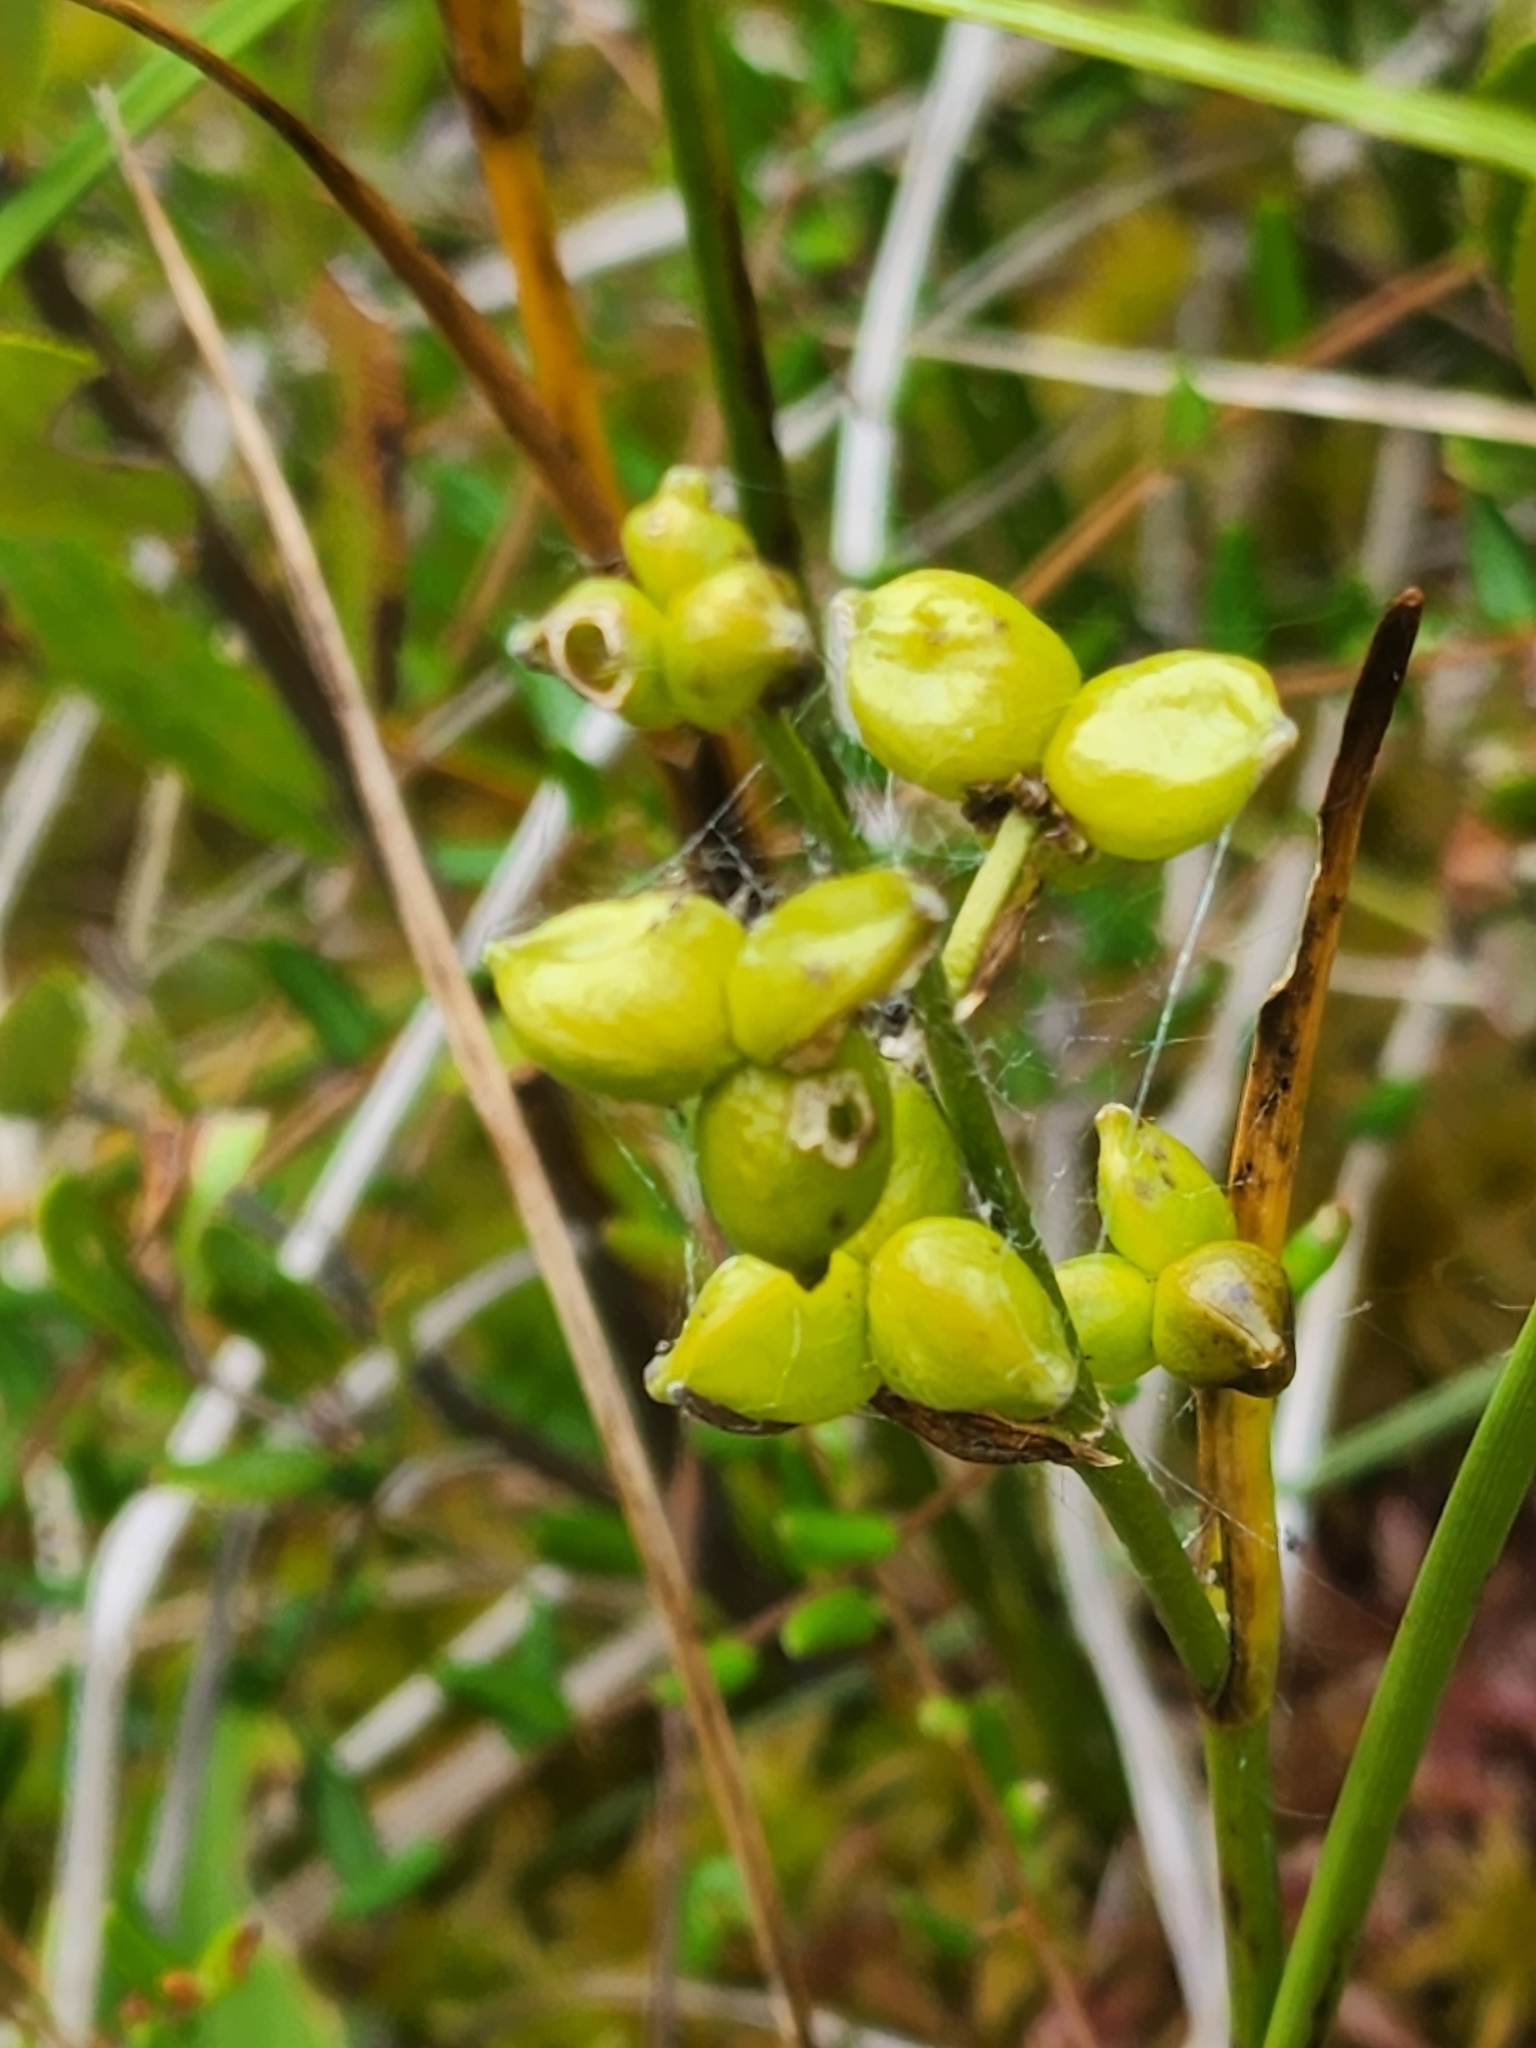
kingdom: Plantae
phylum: Tracheophyta
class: Liliopsida
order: Alismatales
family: Scheuchzeriaceae
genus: Scheuchzeria
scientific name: Scheuchzeria palustris
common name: Rannoch-rush
